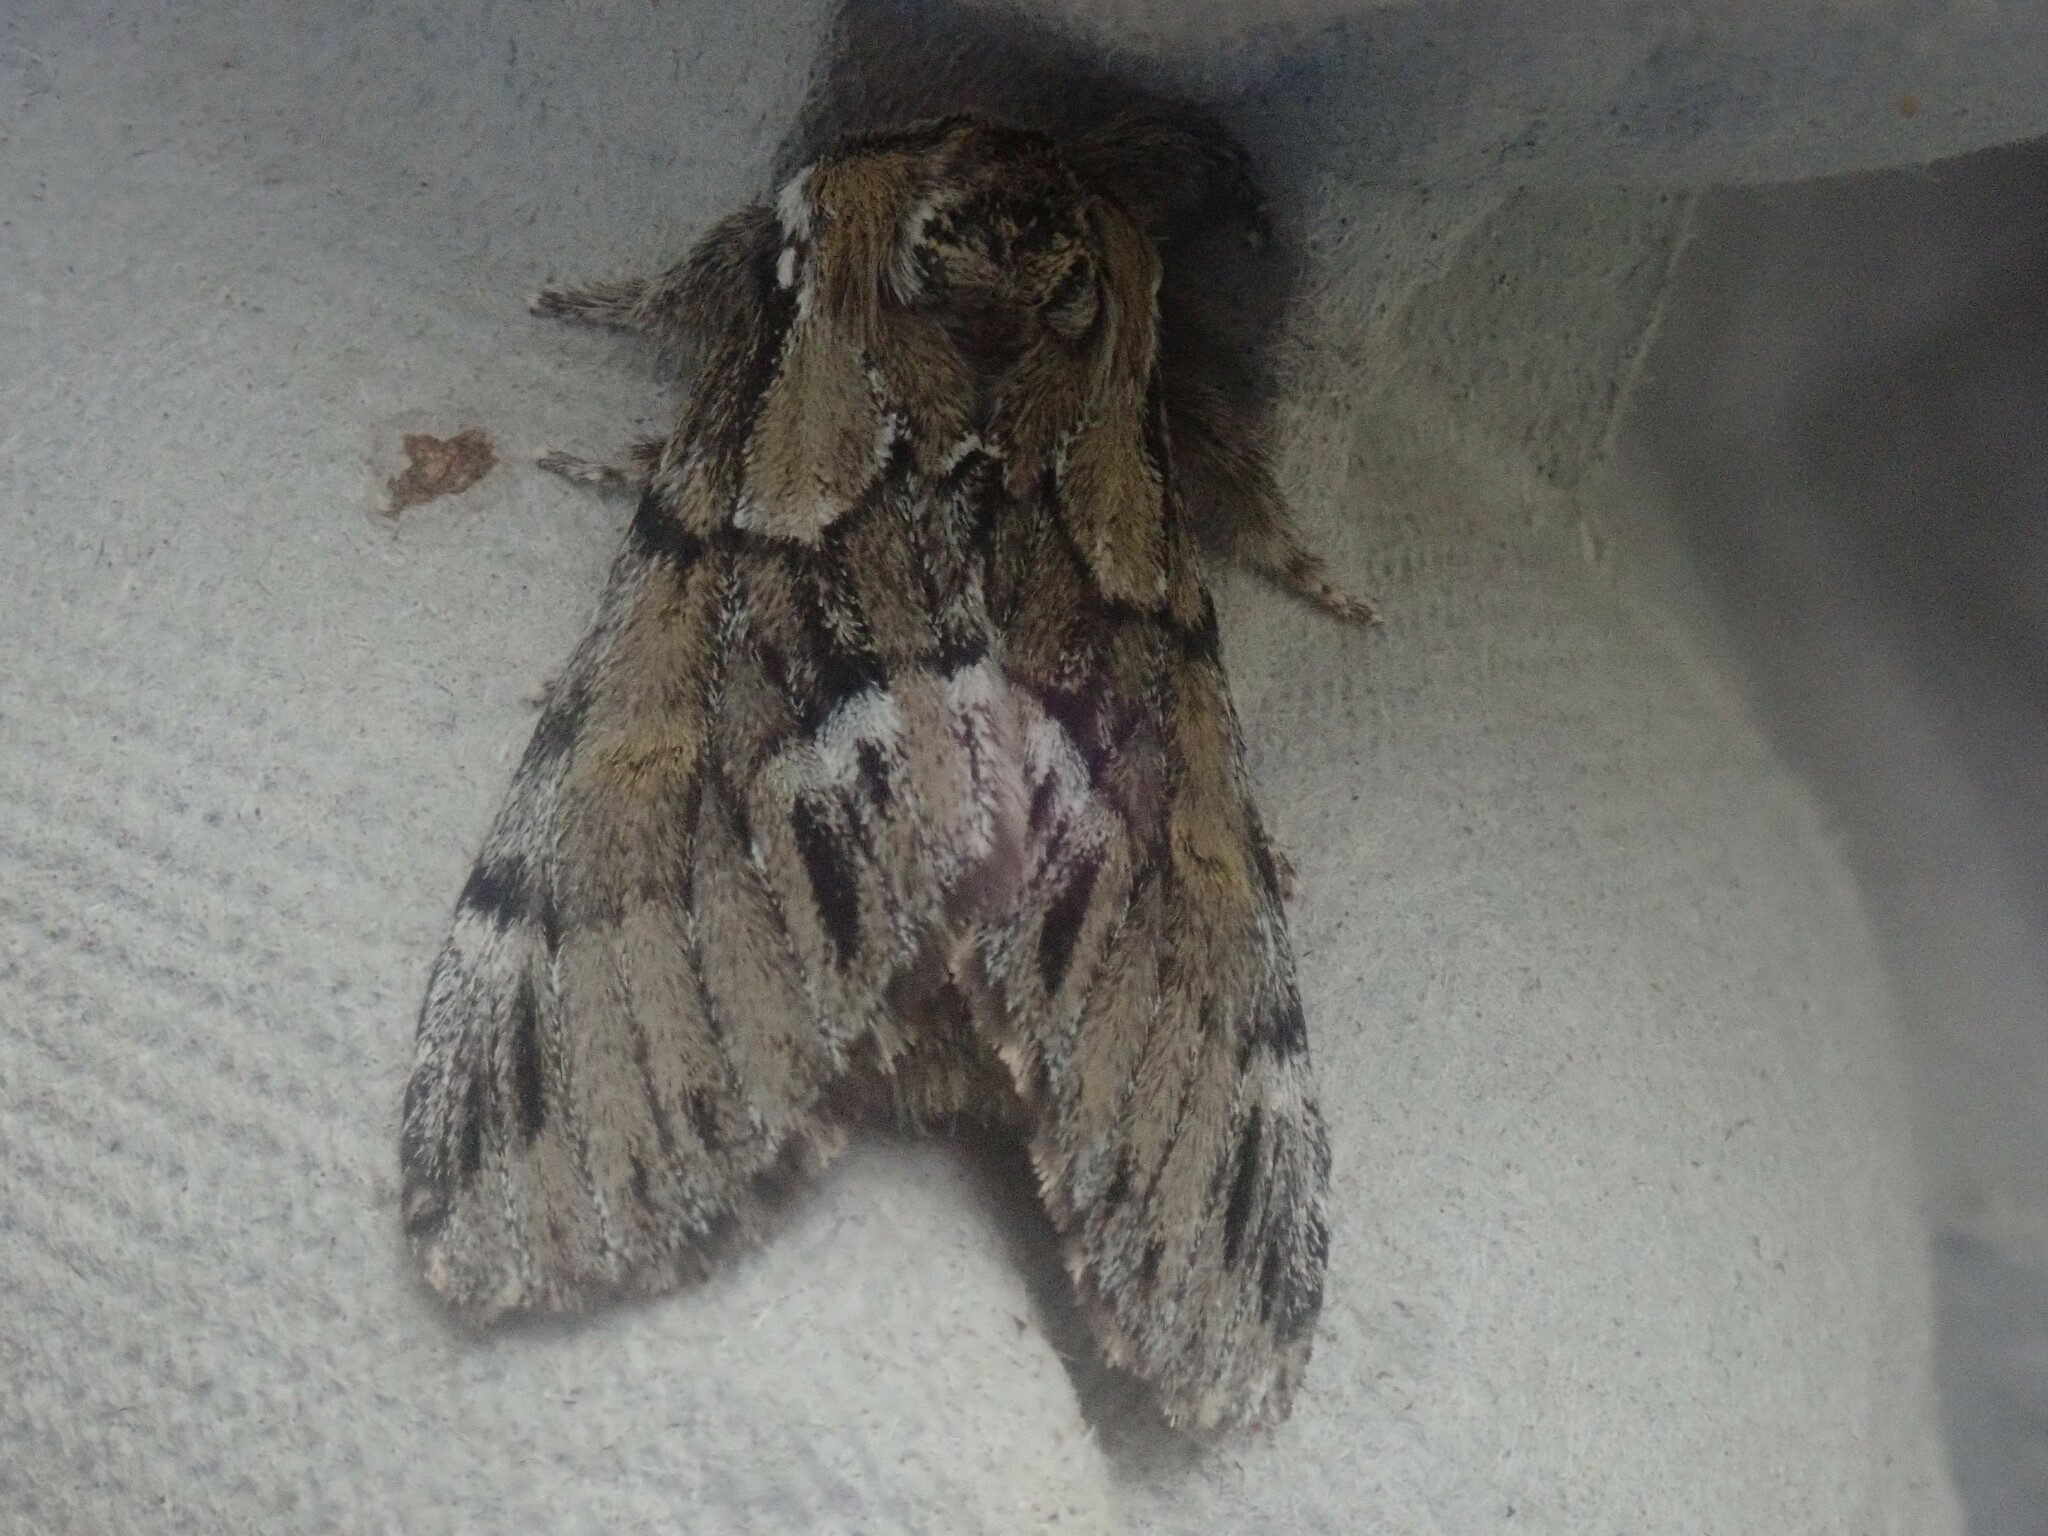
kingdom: Animalia
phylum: Arthropoda
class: Insecta
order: Lepidoptera
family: Notodontidae
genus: Paraeschra
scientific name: Paraeschra georgica
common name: Georgian prominent
